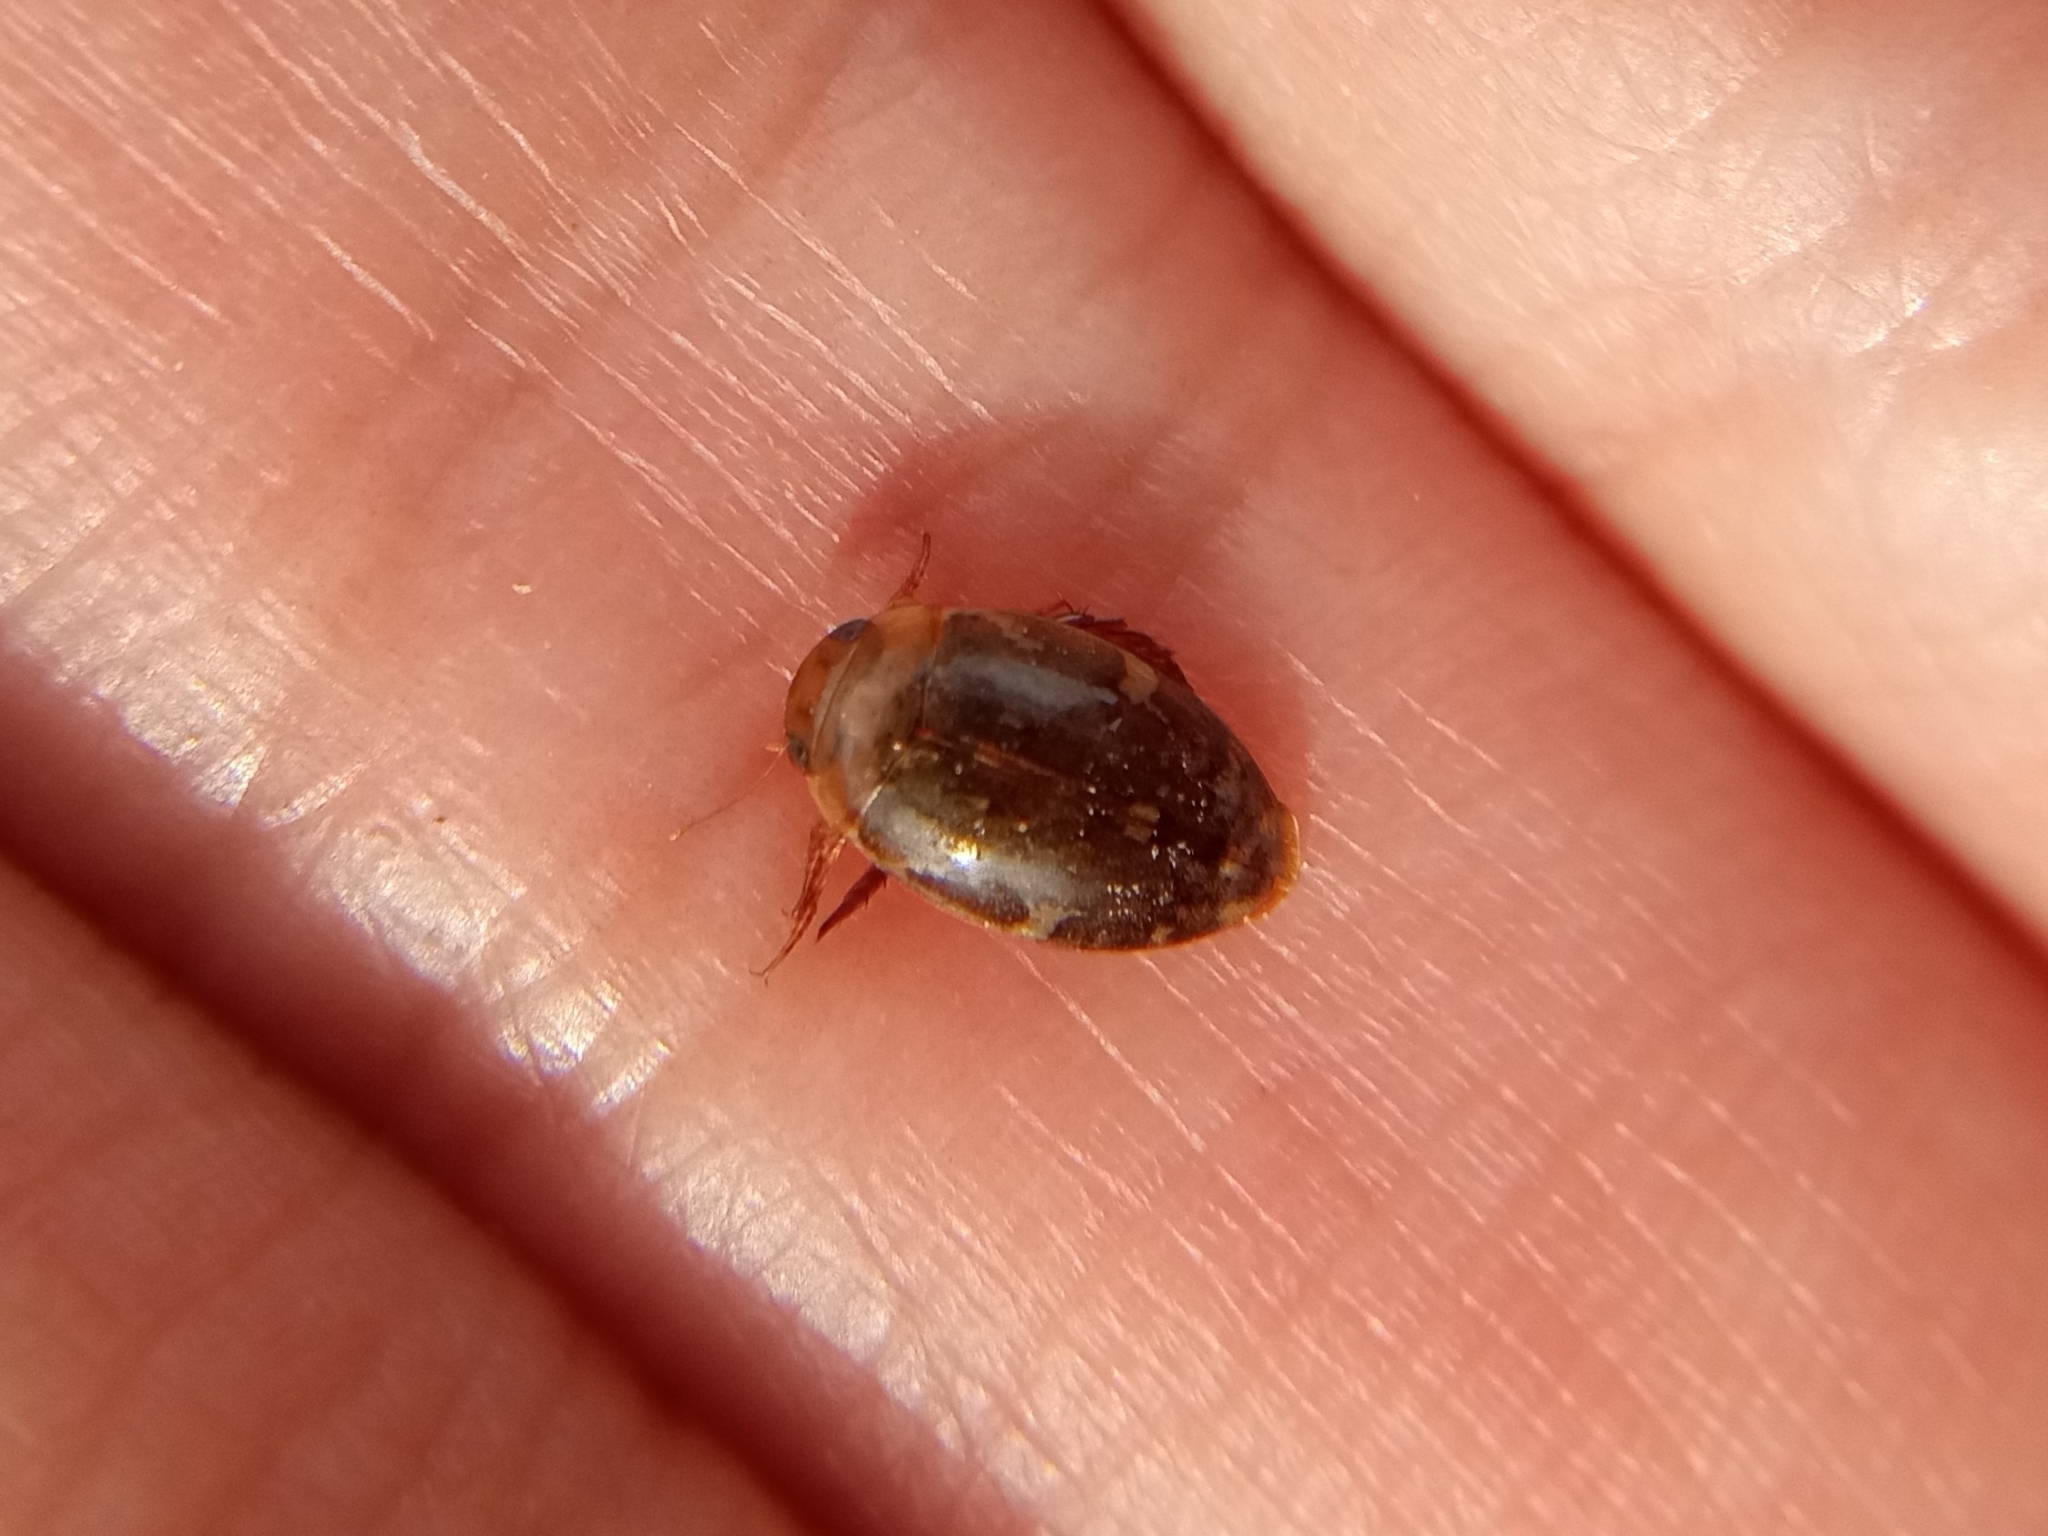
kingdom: Animalia
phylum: Arthropoda
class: Insecta
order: Coleoptera
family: Dytiscidae
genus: Laccophilus
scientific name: Laccophilus maculosus
